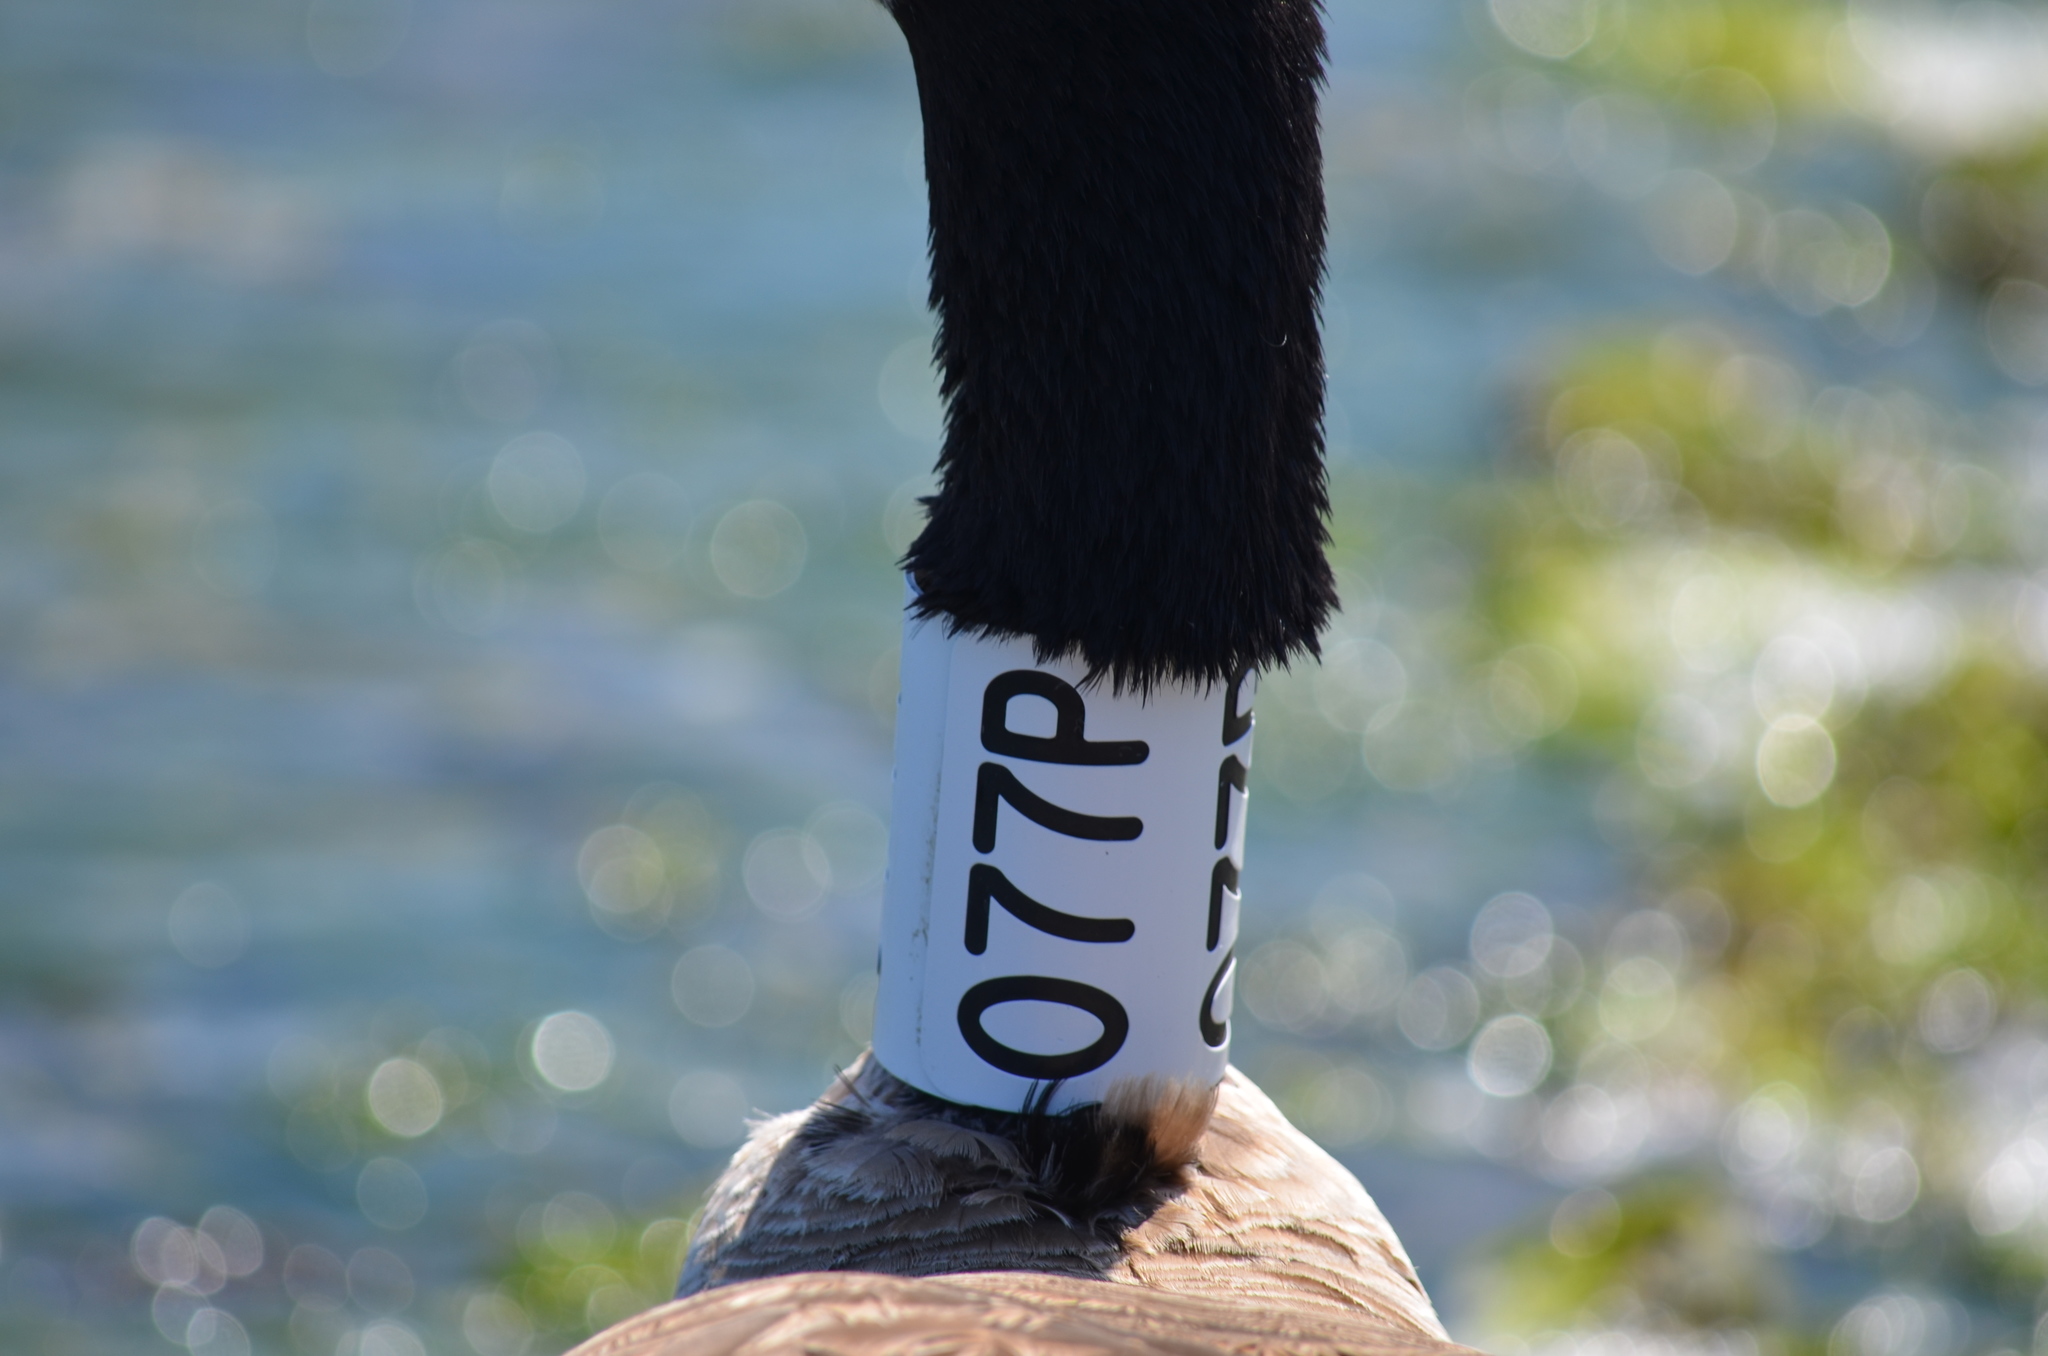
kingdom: Animalia
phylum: Chordata
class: Aves
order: Anseriformes
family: Anatidae
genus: Branta
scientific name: Branta canadensis
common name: Canada goose
